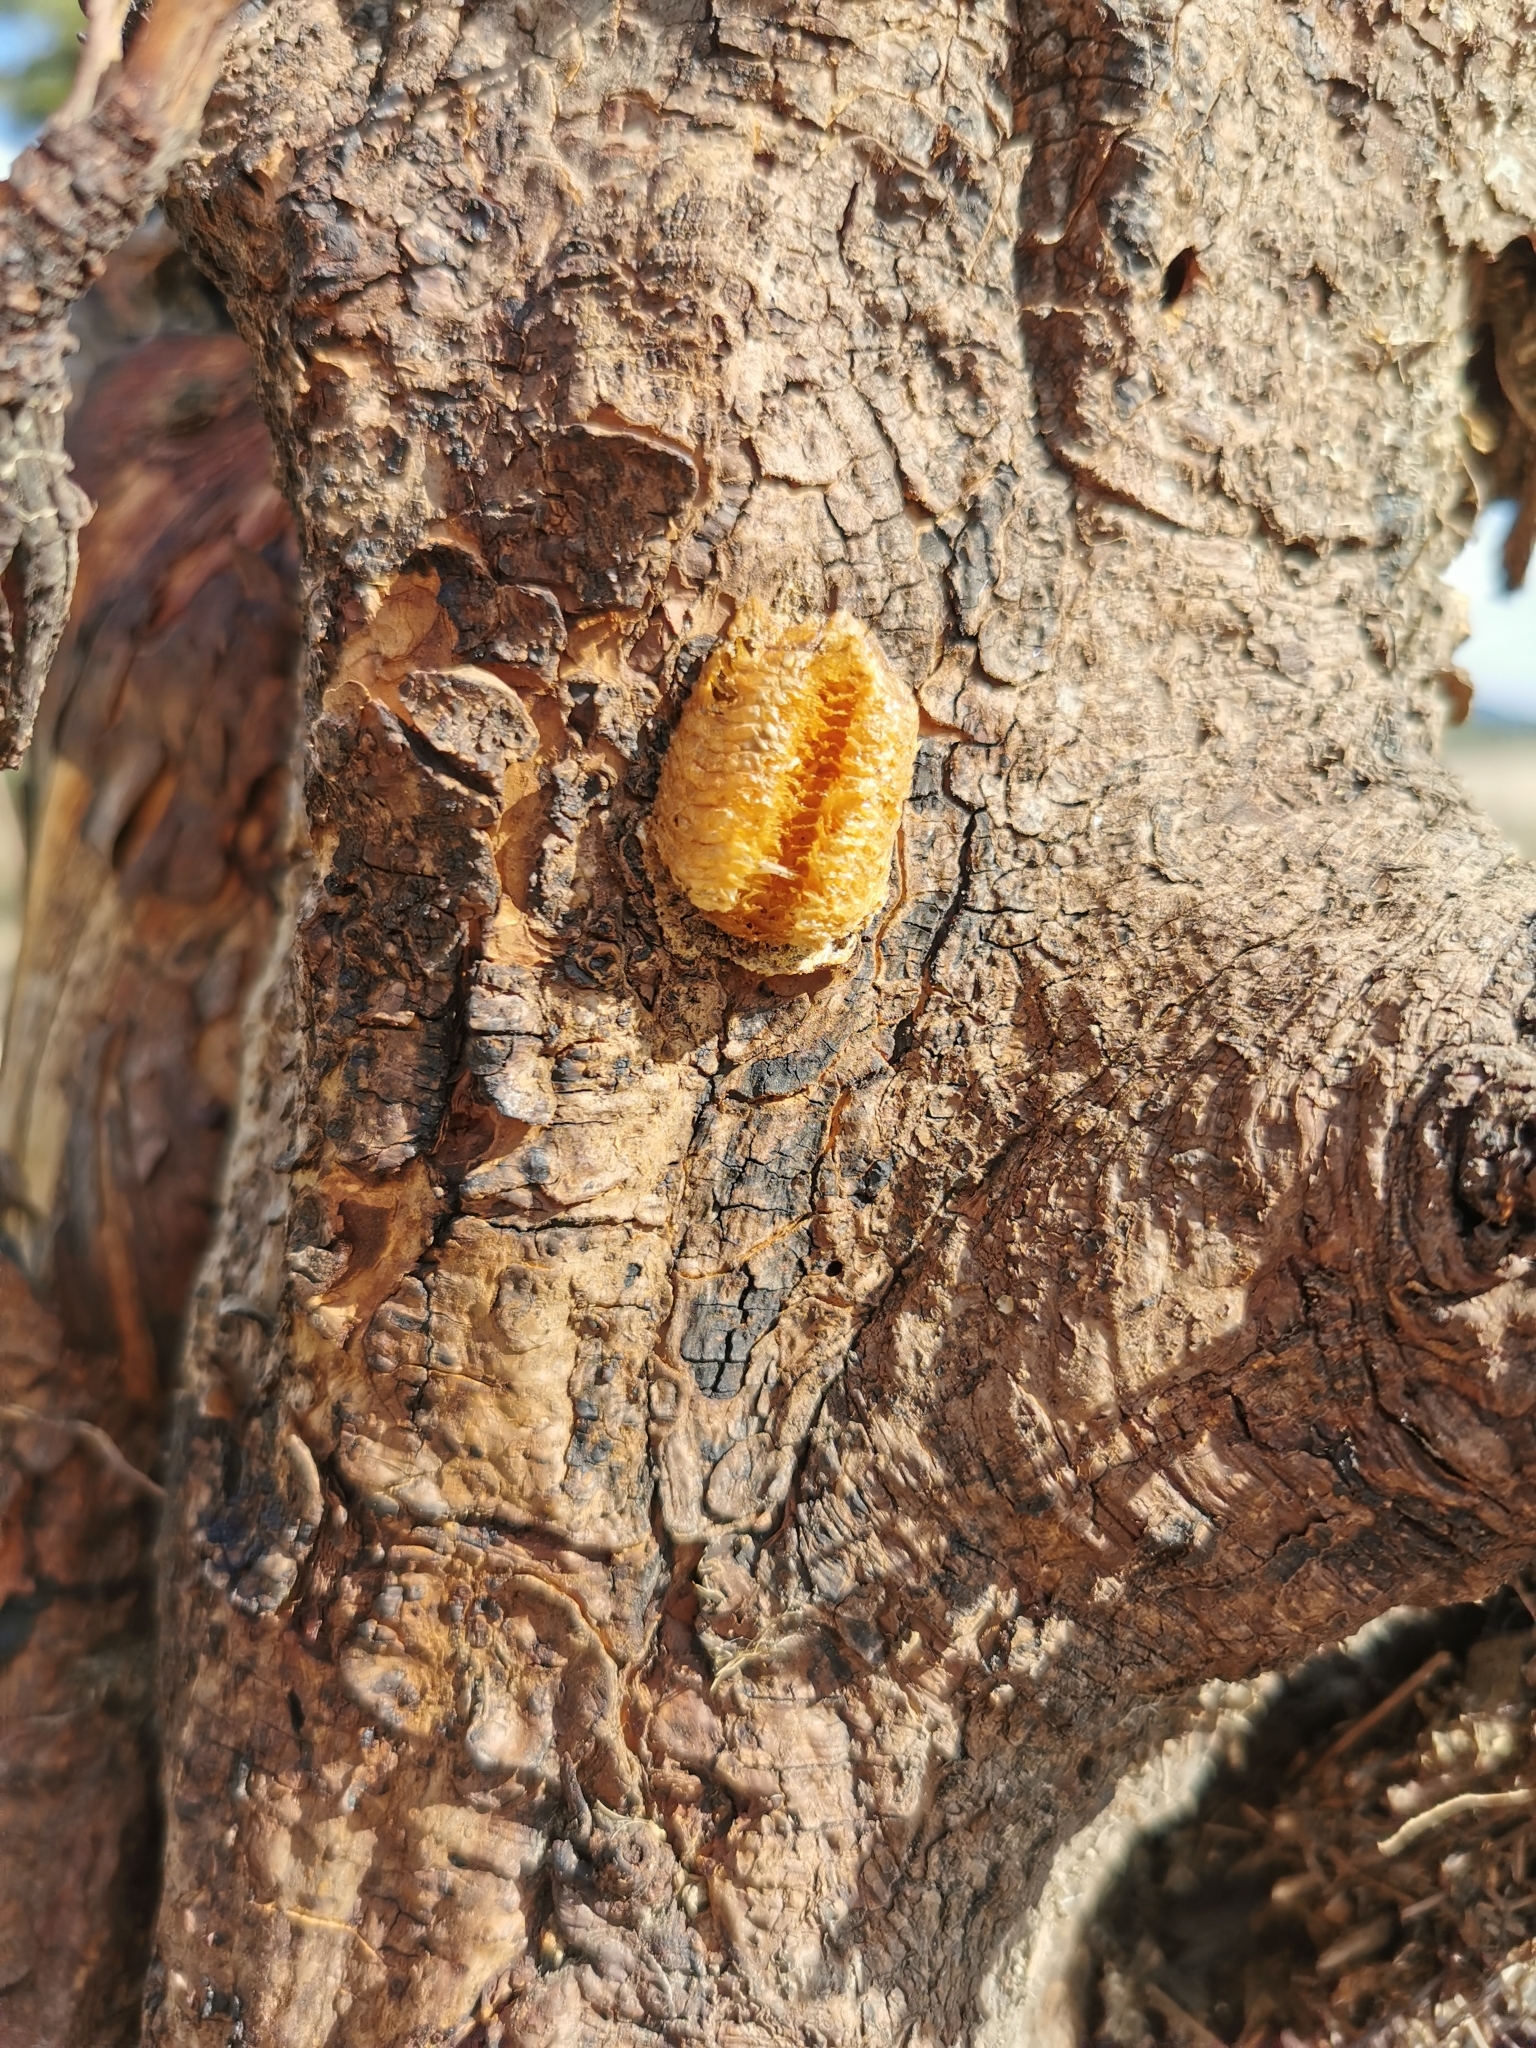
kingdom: Animalia
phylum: Arthropoda
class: Insecta
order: Mantodea
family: Mantidae
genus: Mantis
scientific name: Mantis religiosa
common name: Praying mantis
